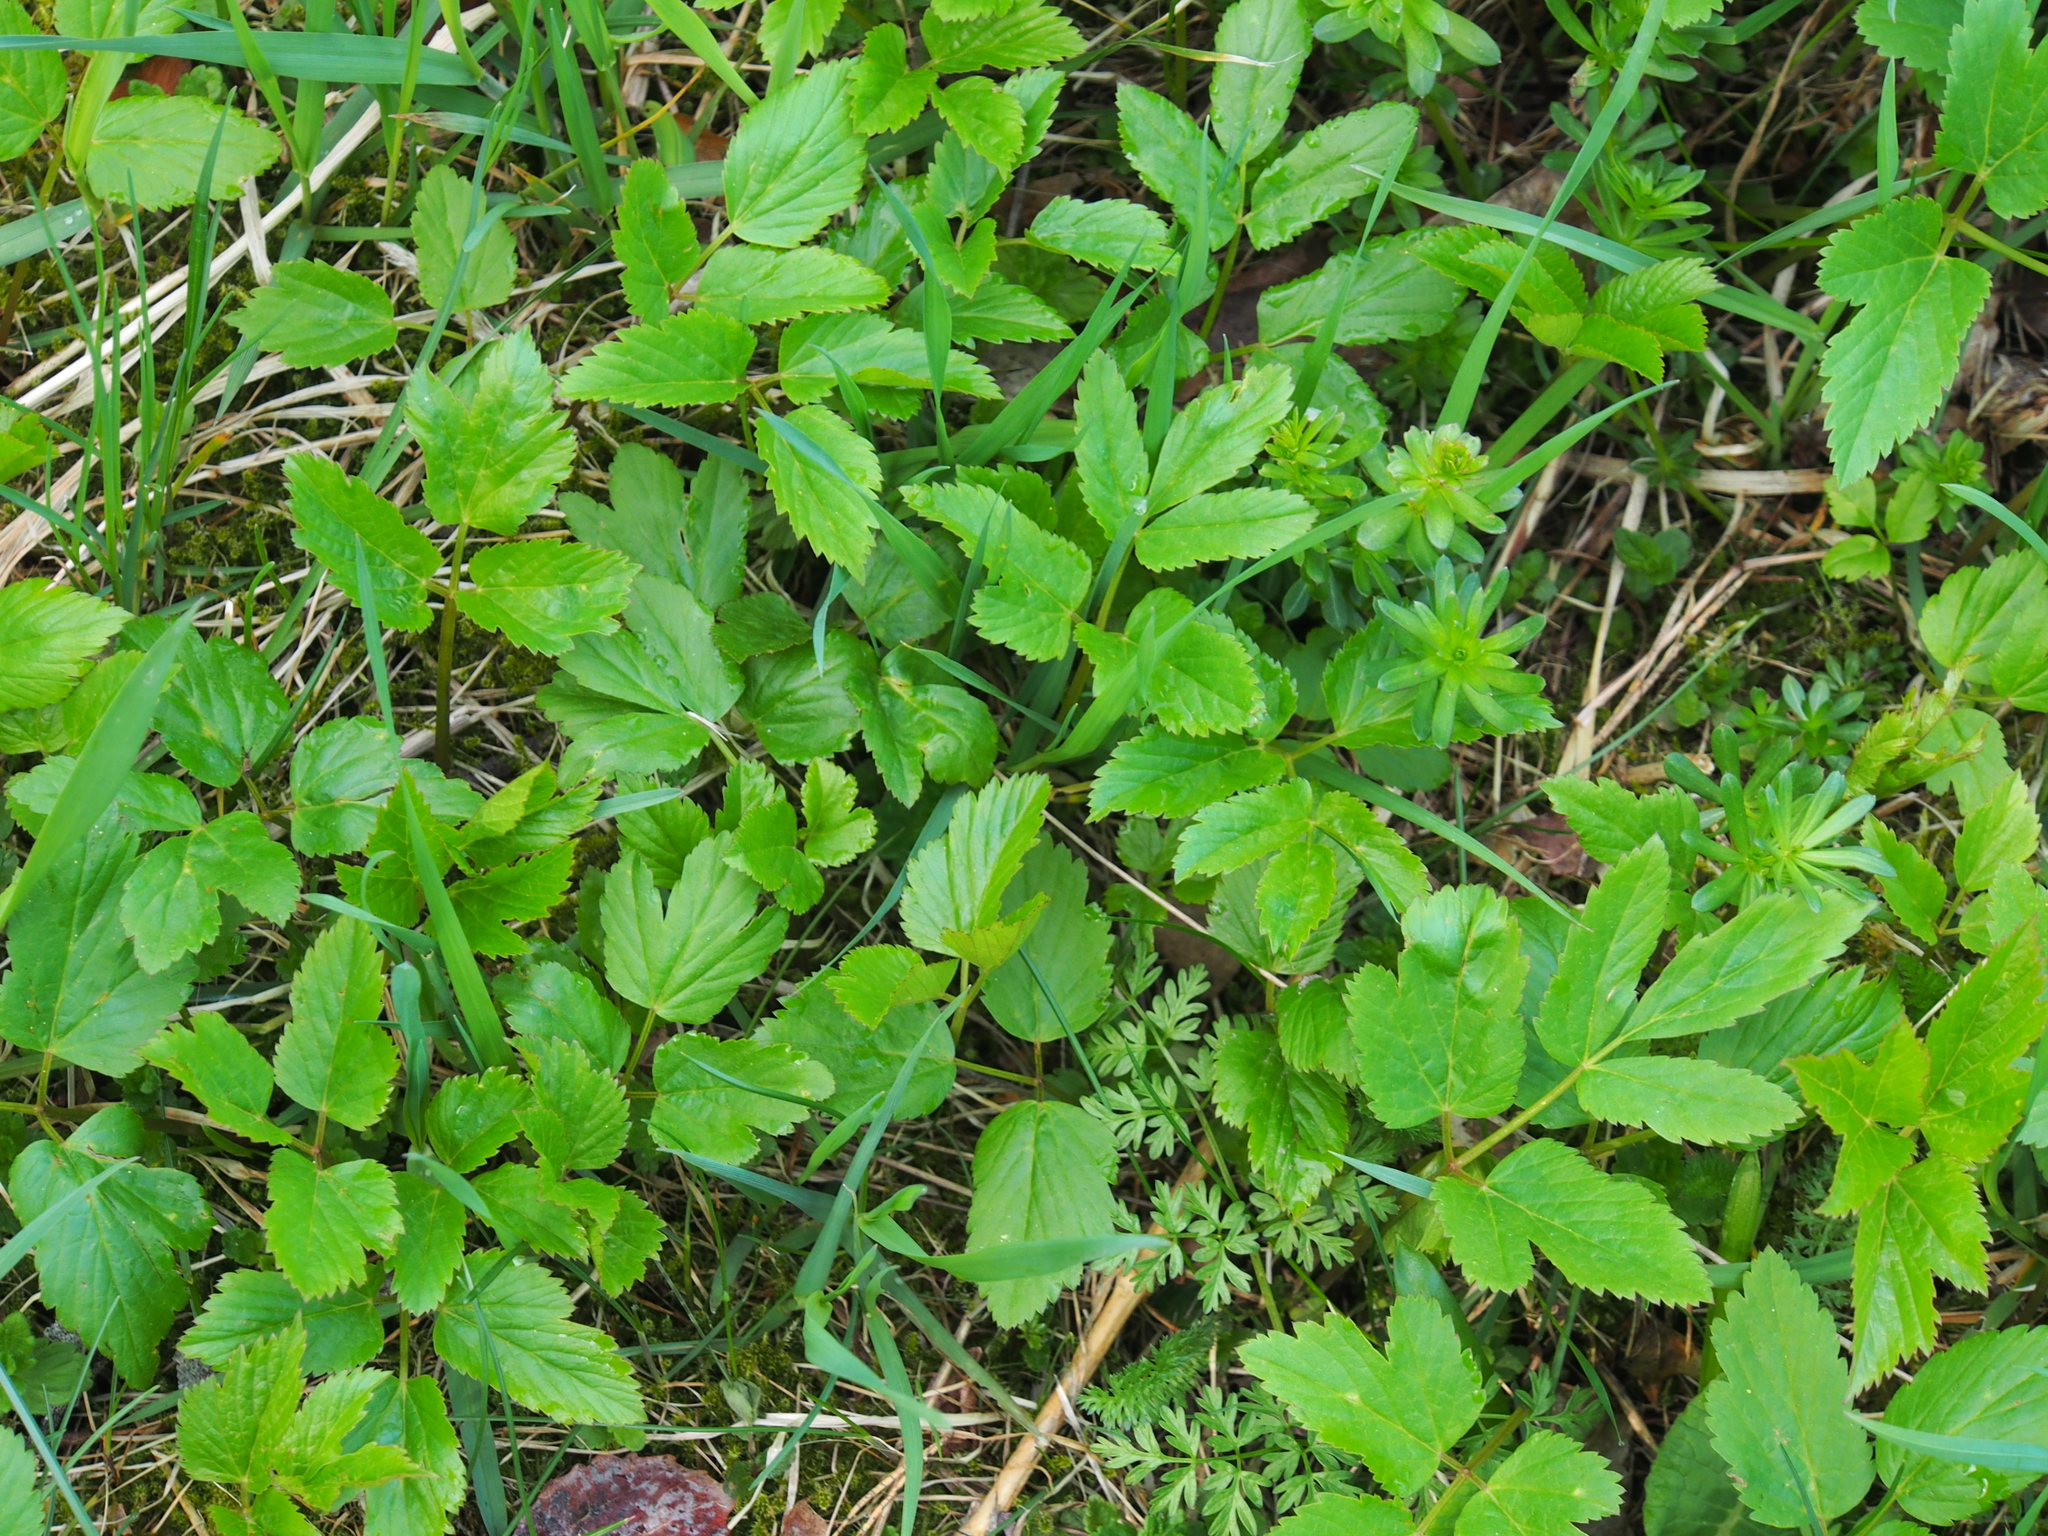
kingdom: Plantae
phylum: Tracheophyta
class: Magnoliopsida
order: Apiales
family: Apiaceae
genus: Aegopodium
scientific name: Aegopodium podagraria
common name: Ground-elder
